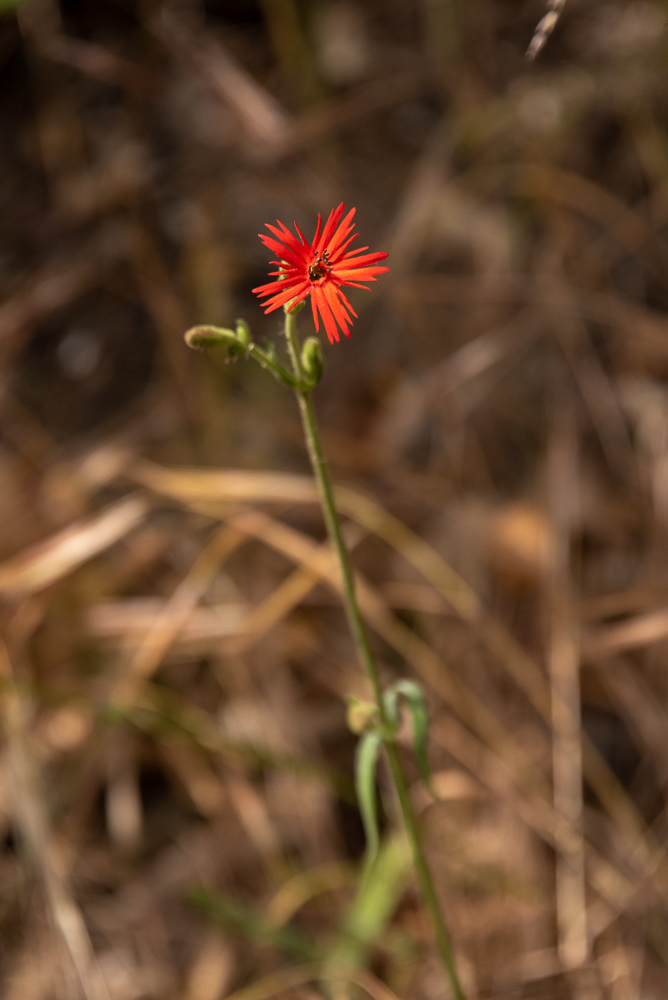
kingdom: Plantae
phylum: Tracheophyta
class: Magnoliopsida
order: Caryophyllales
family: Caryophyllaceae
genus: Silene
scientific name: Silene laciniata
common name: Indian-pink
